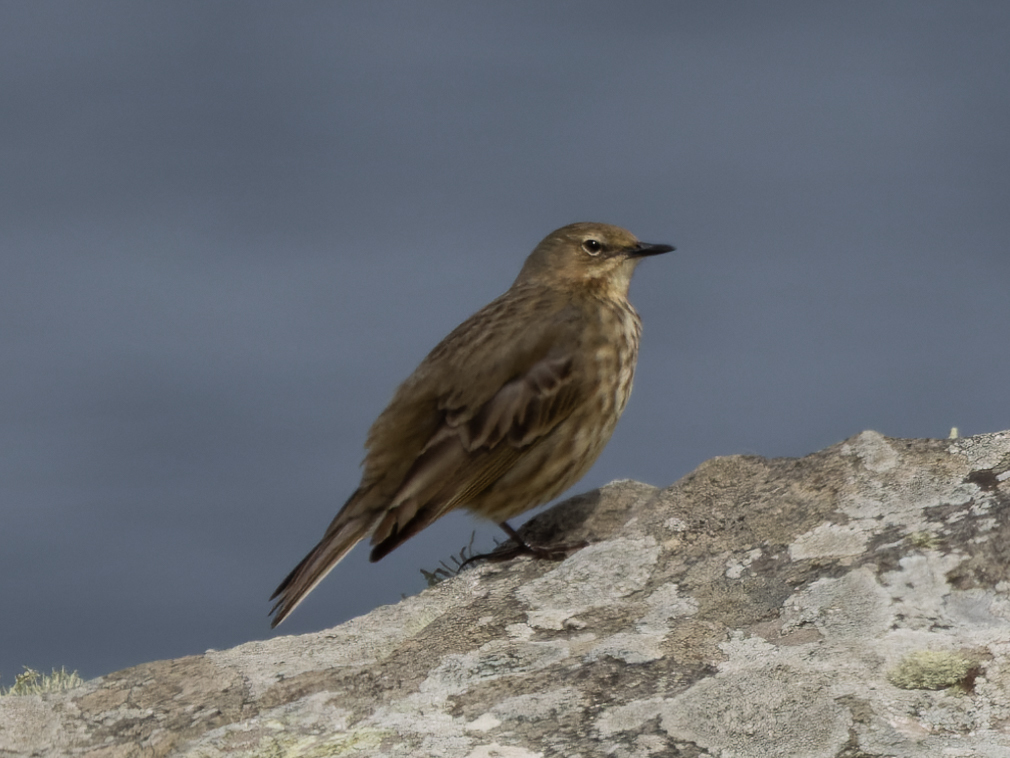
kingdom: Animalia
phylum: Chordata
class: Aves
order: Passeriformes
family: Motacillidae
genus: Anthus
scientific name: Anthus petrosus
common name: Eurasian rock pipit
